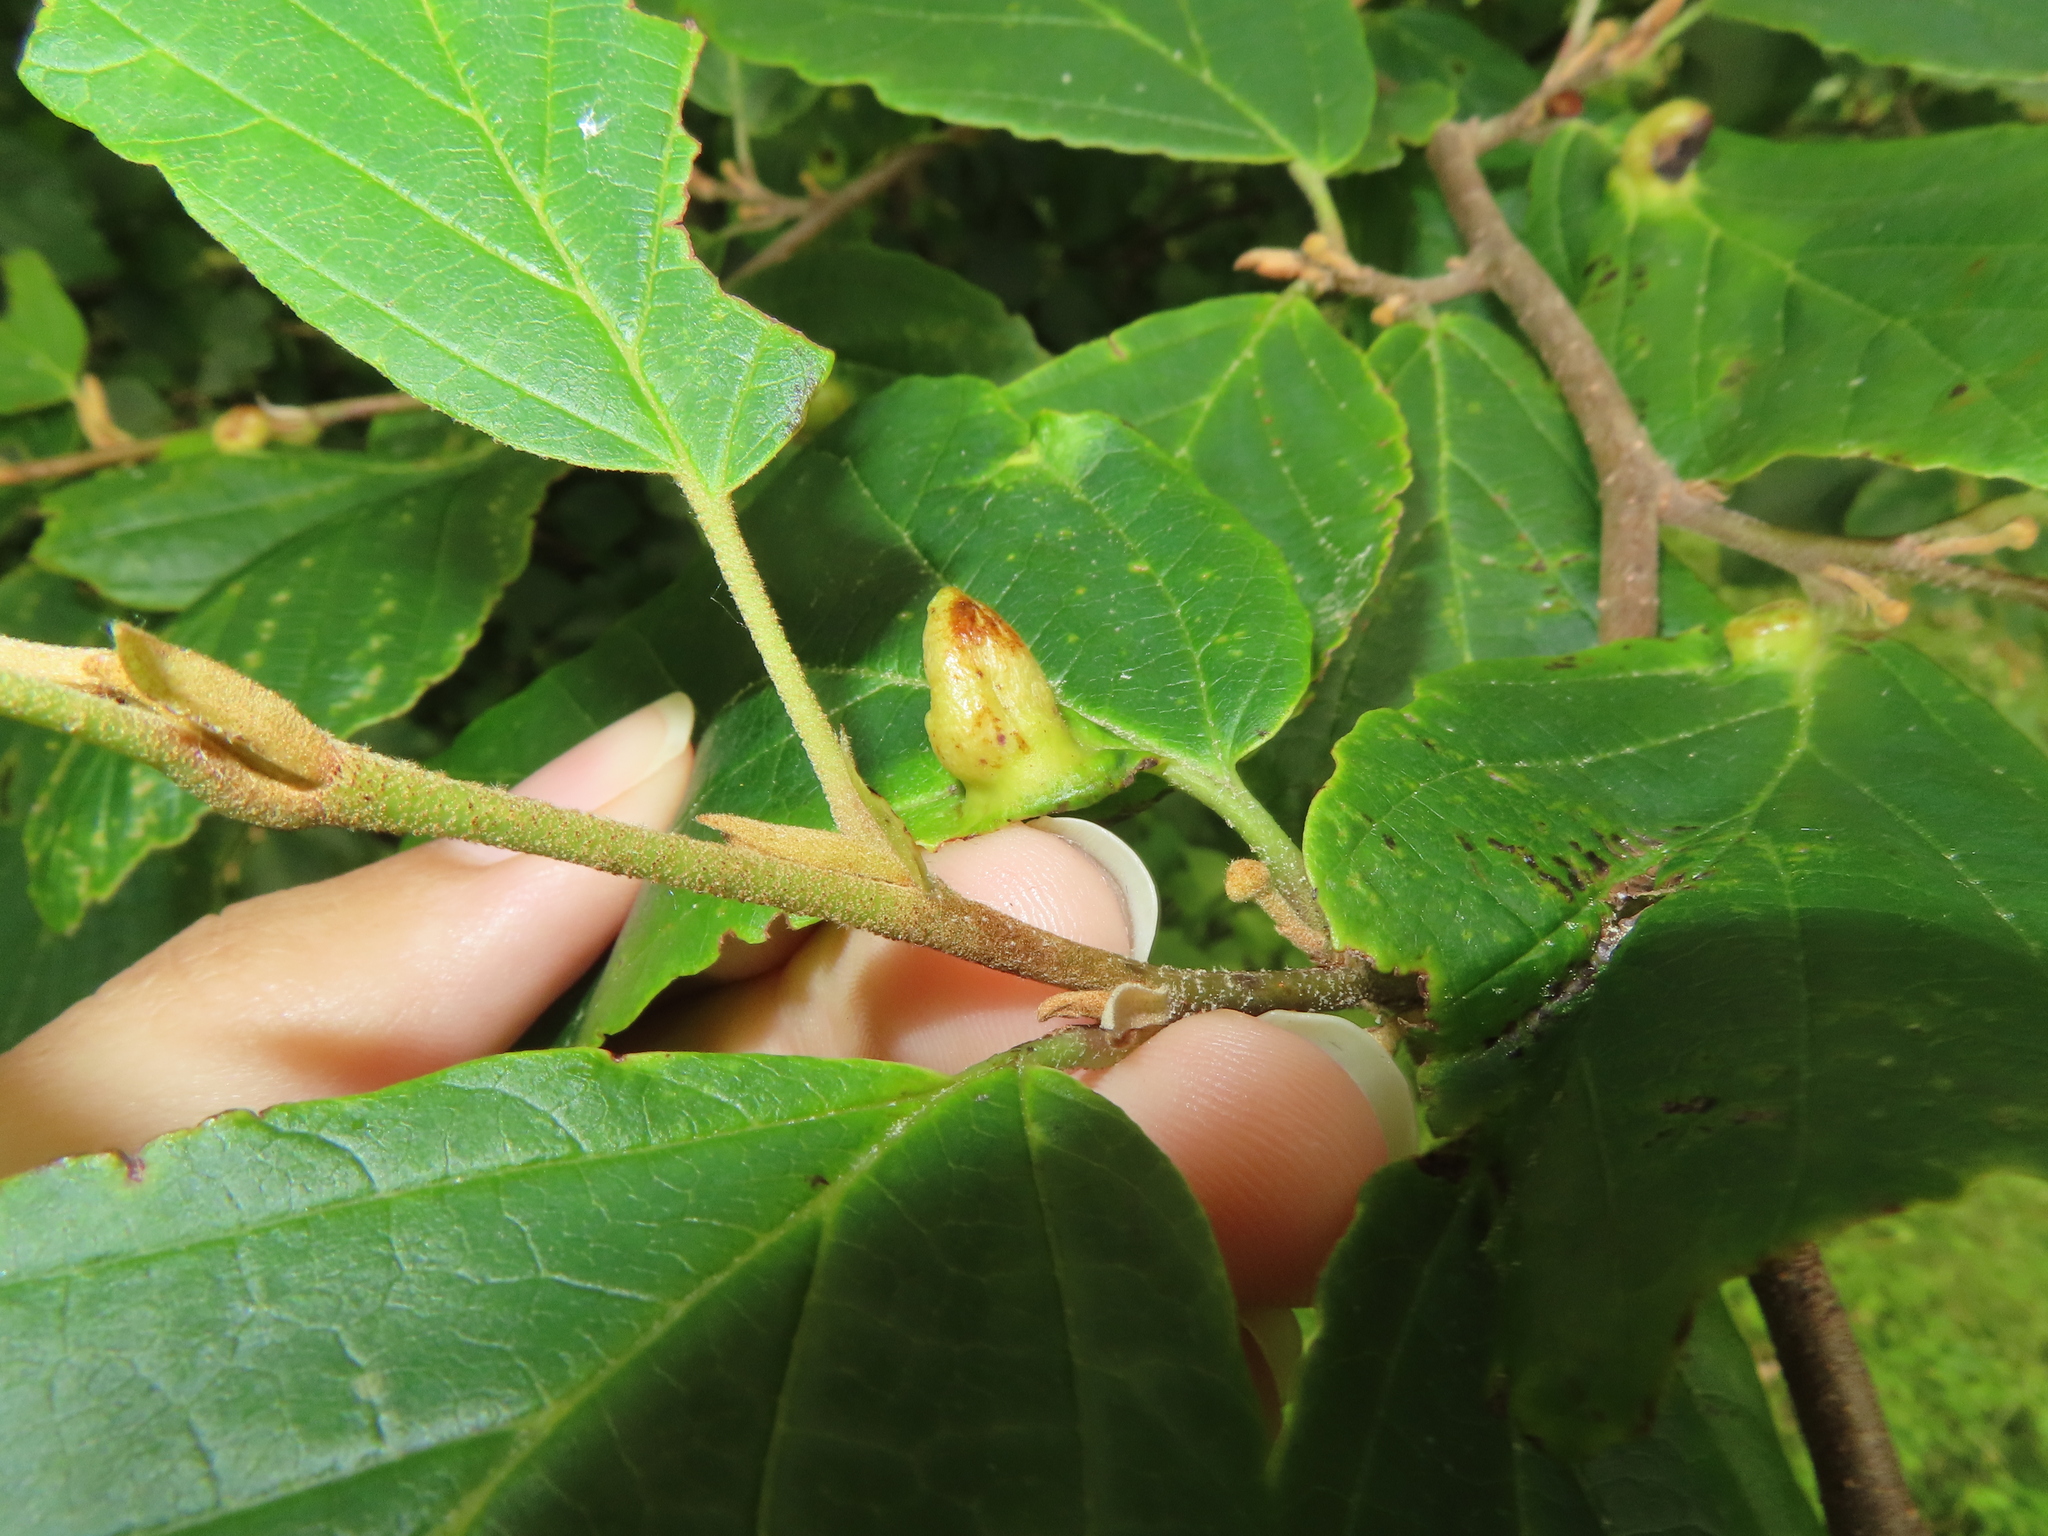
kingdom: Animalia
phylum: Arthropoda
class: Insecta
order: Hemiptera
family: Aphididae
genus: Hormaphis
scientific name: Hormaphis hamamelidis
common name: Witch-hazel cone gall aphid
